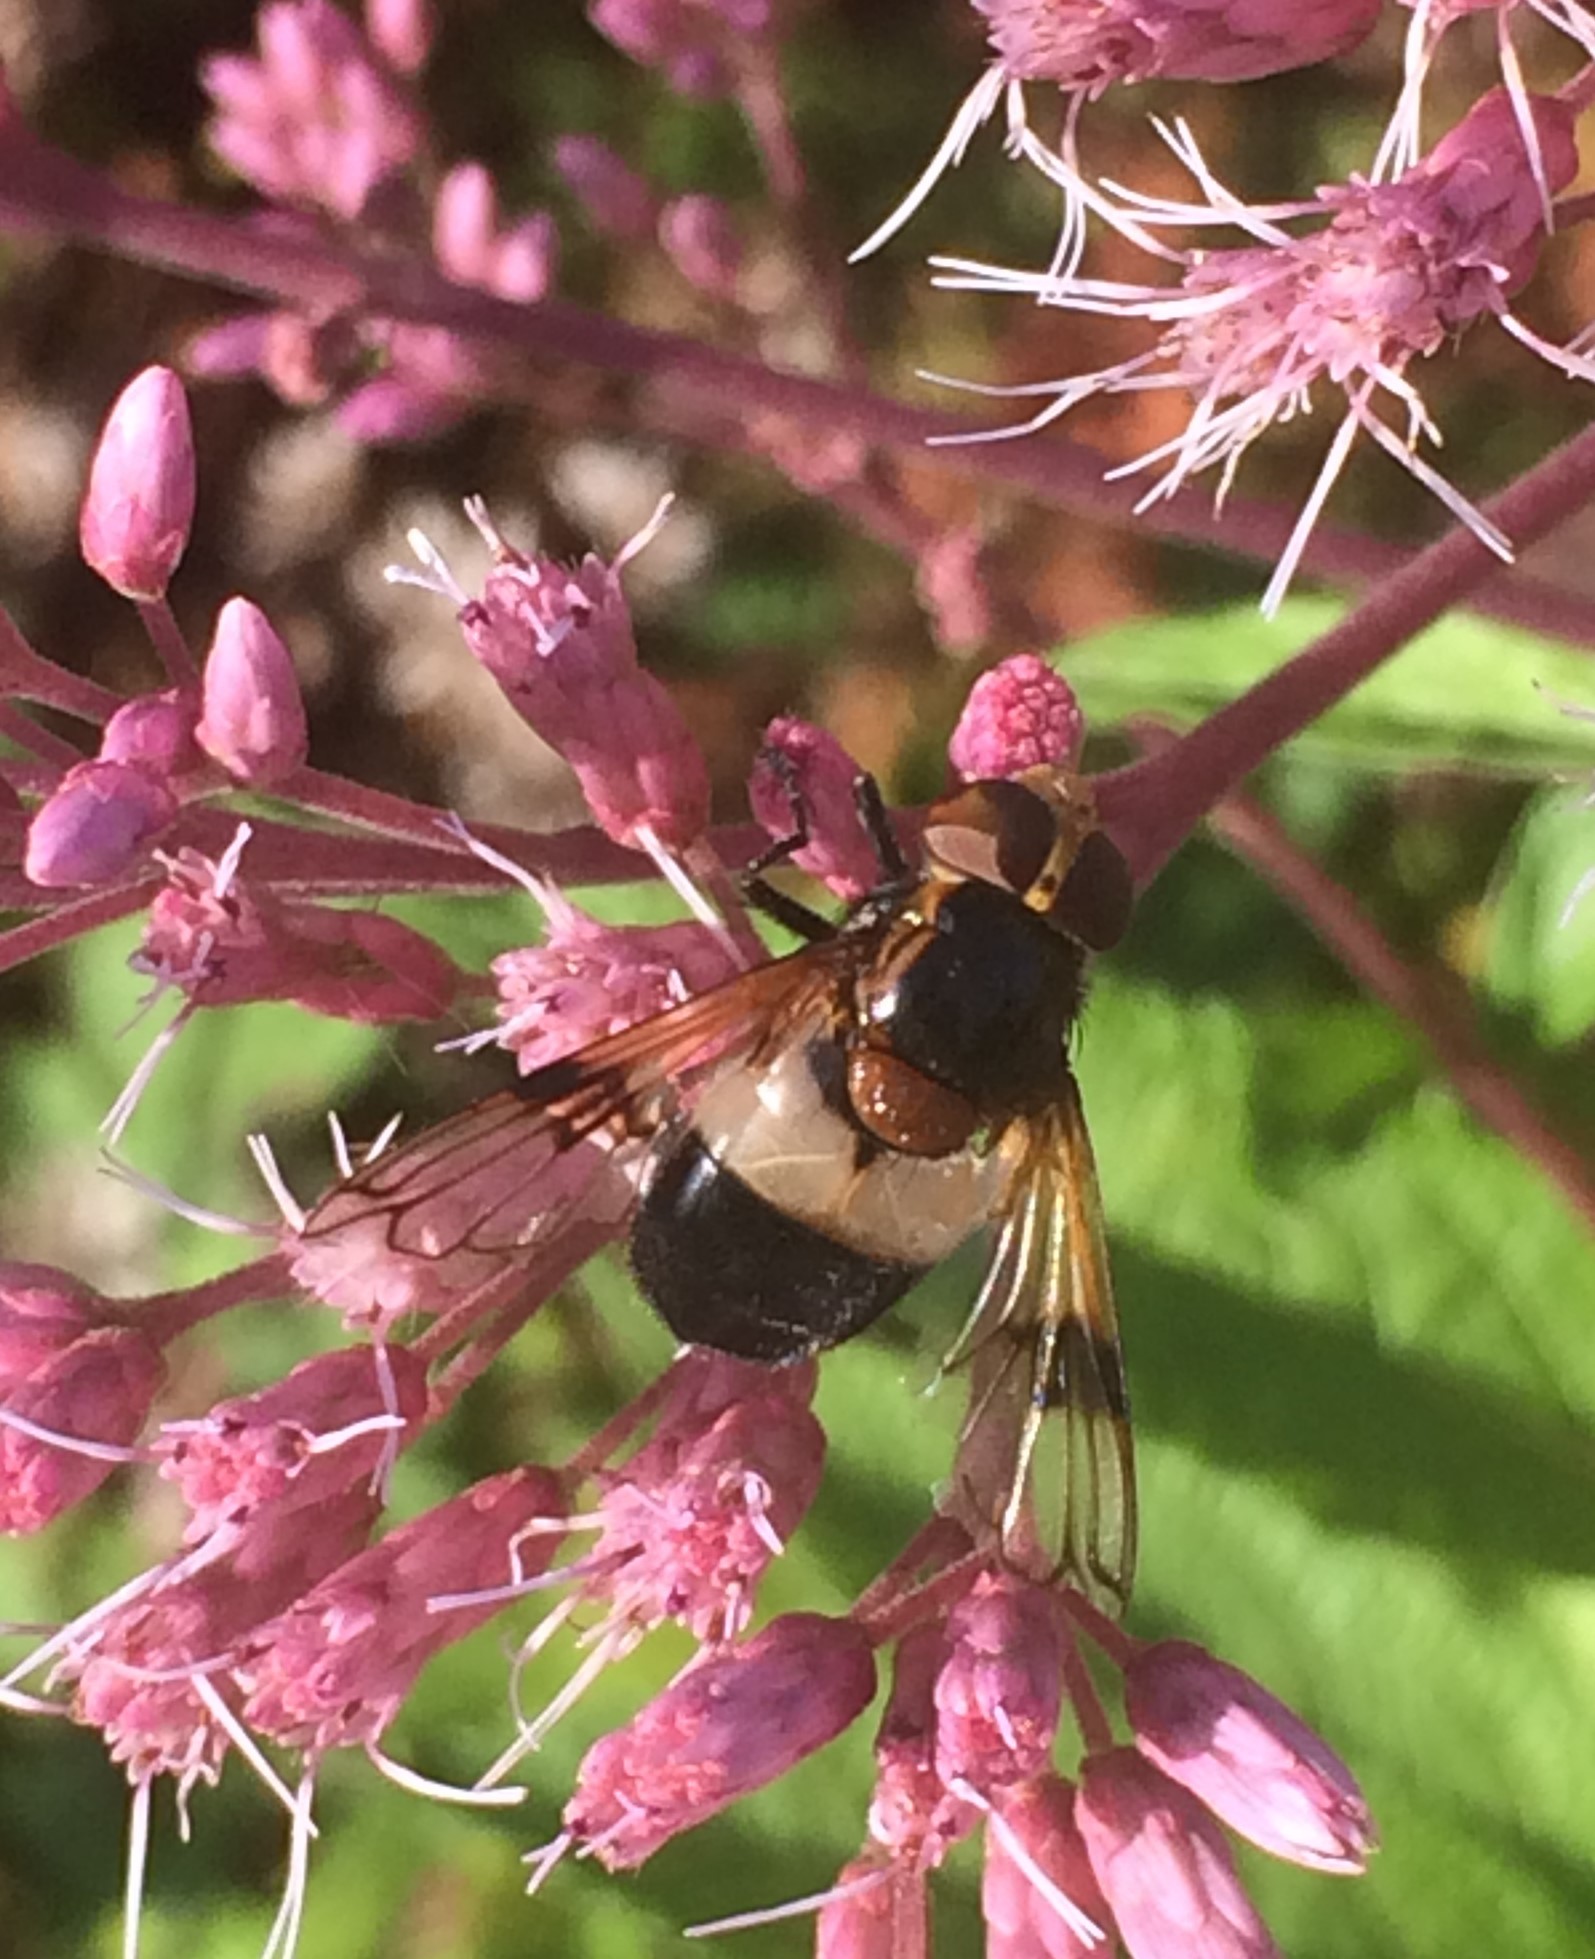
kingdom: Animalia
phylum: Arthropoda
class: Insecta
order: Diptera
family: Syrphidae
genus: Volucella
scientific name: Volucella pellucens
